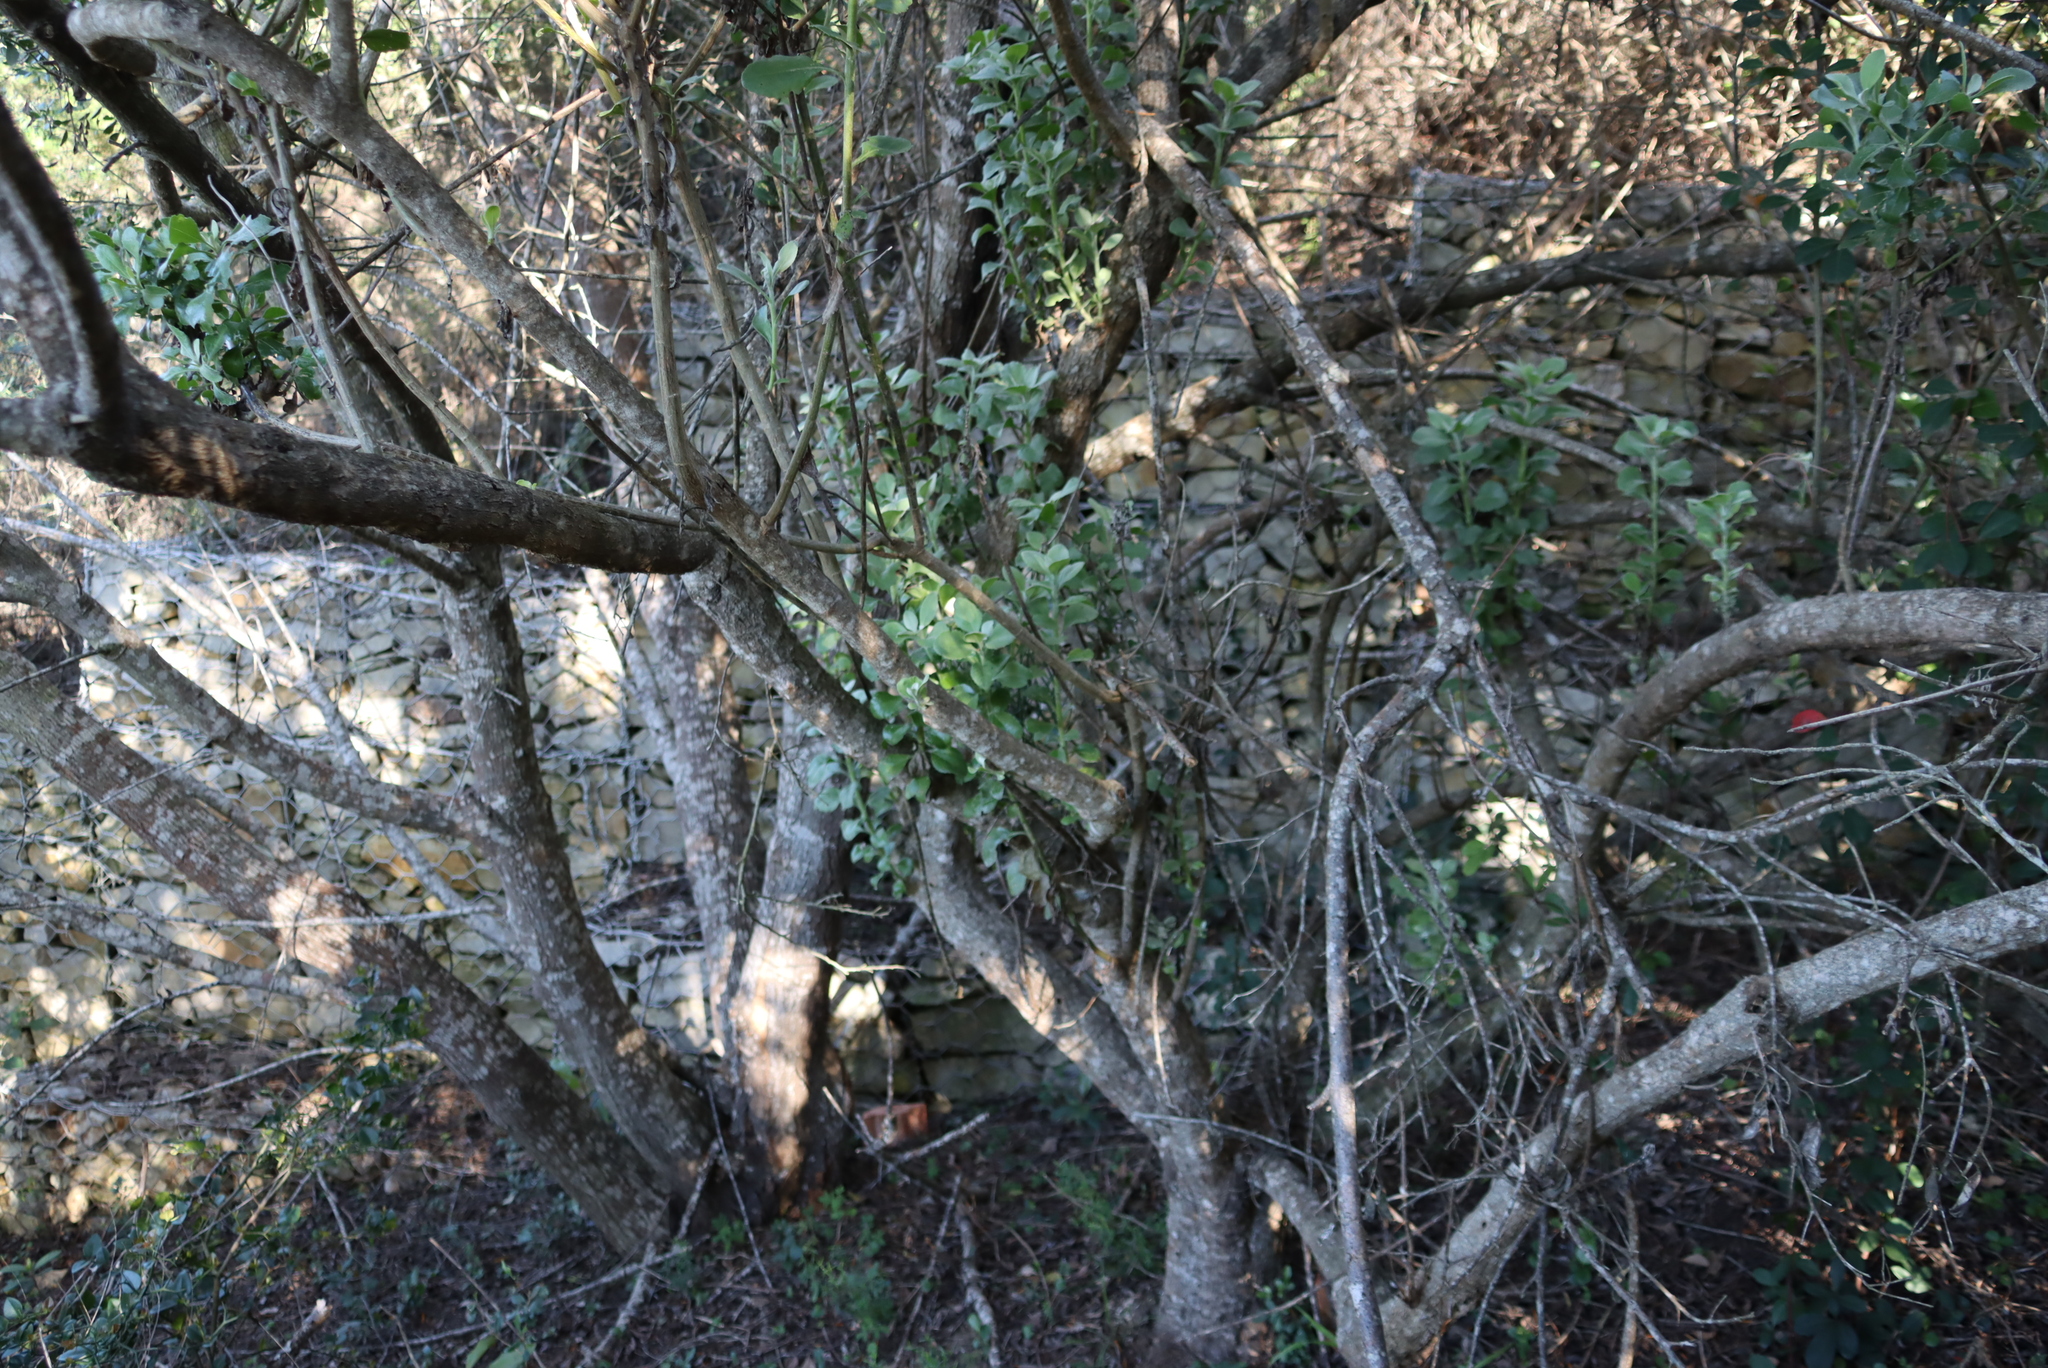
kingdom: Plantae
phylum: Tracheophyta
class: Magnoliopsida
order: Asterales
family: Asteraceae
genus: Osteospermum
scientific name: Osteospermum moniliferum
